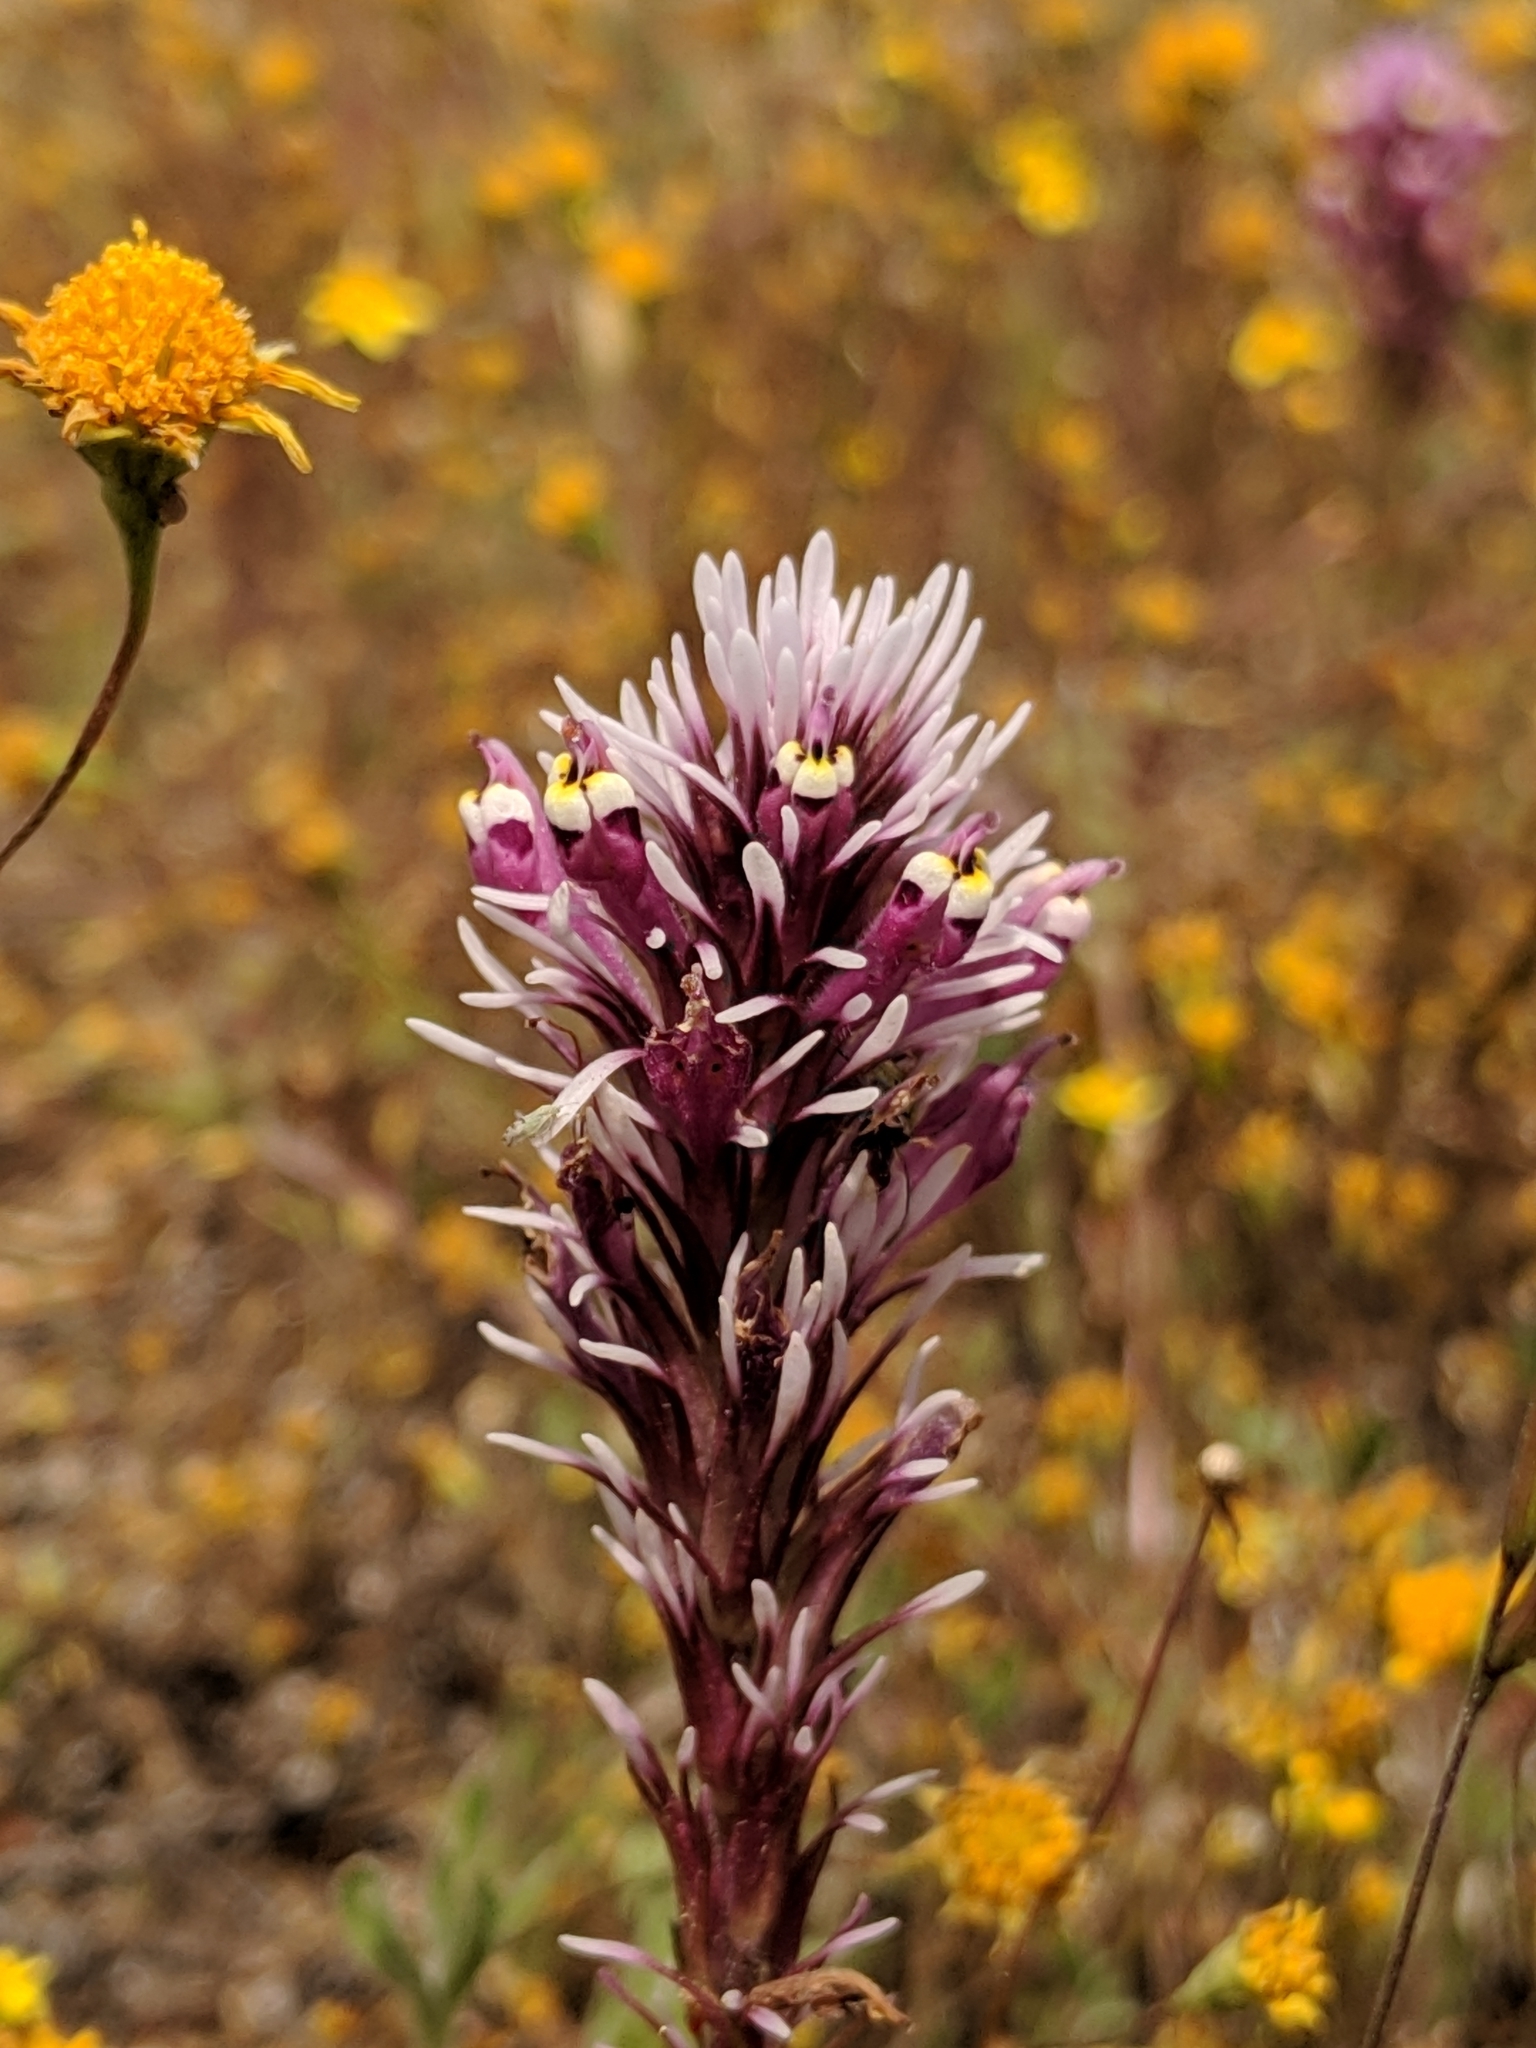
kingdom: Plantae
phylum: Tracheophyta
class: Magnoliopsida
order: Lamiales
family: Orobanchaceae
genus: Castilleja
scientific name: Castilleja densiflora
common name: Dense-flower indian paintbrush
